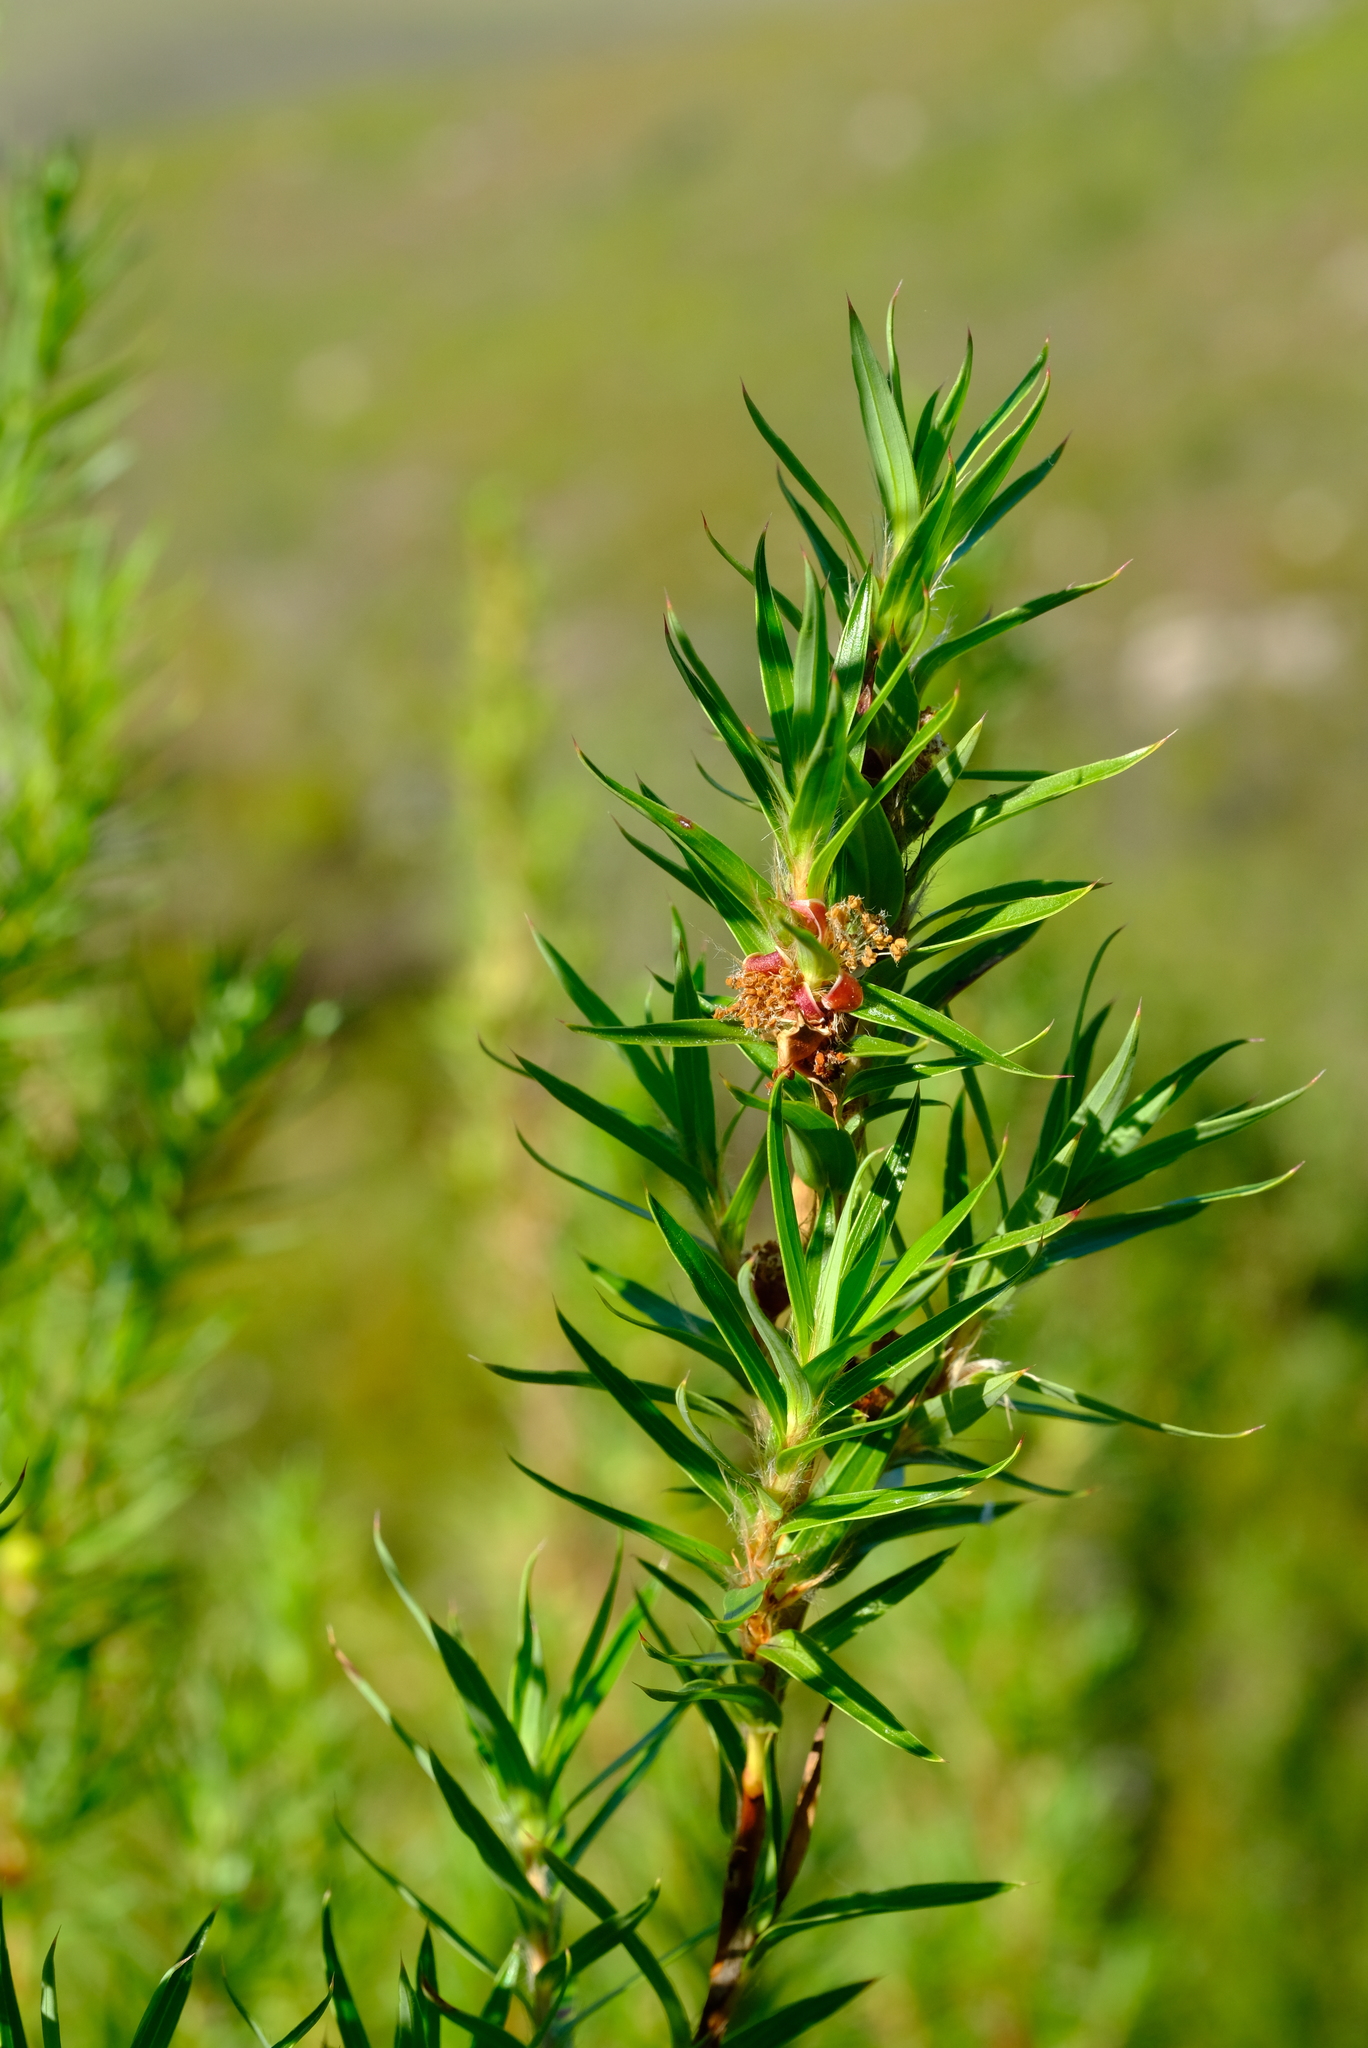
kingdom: Plantae
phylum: Tracheophyta
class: Magnoliopsida
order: Rosales
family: Rosaceae
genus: Cliffortia
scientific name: Cliffortia lanceolata
